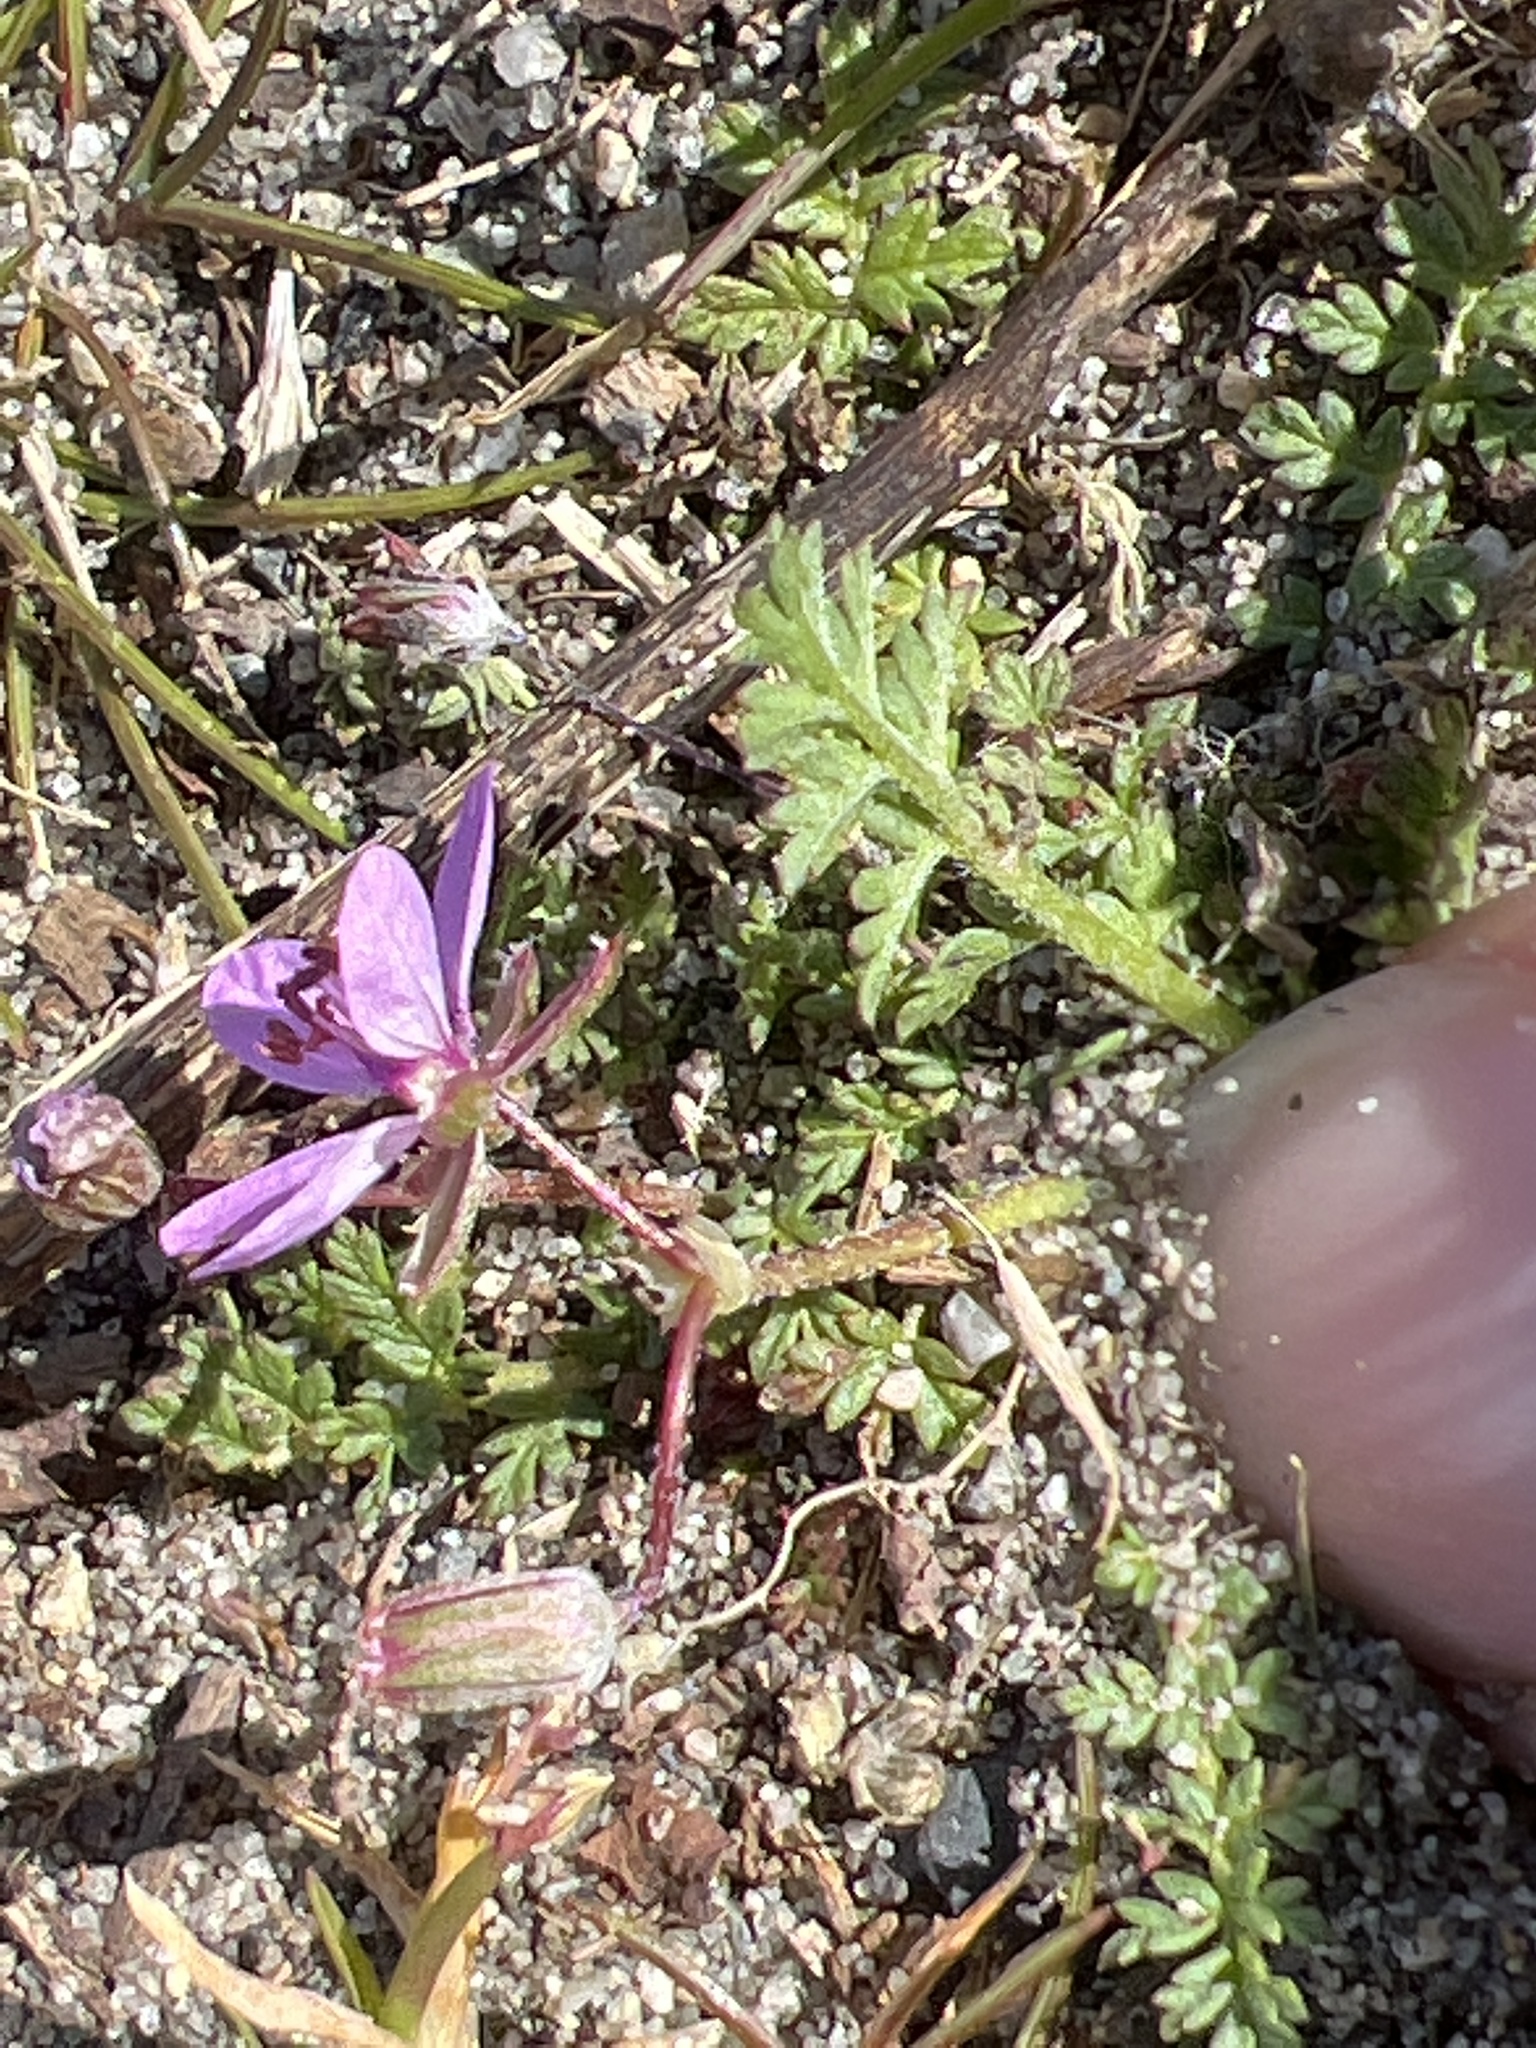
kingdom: Plantae
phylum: Tracheophyta
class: Magnoliopsida
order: Geraniales
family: Geraniaceae
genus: Erodium
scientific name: Erodium cicutarium
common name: Common stork's-bill
